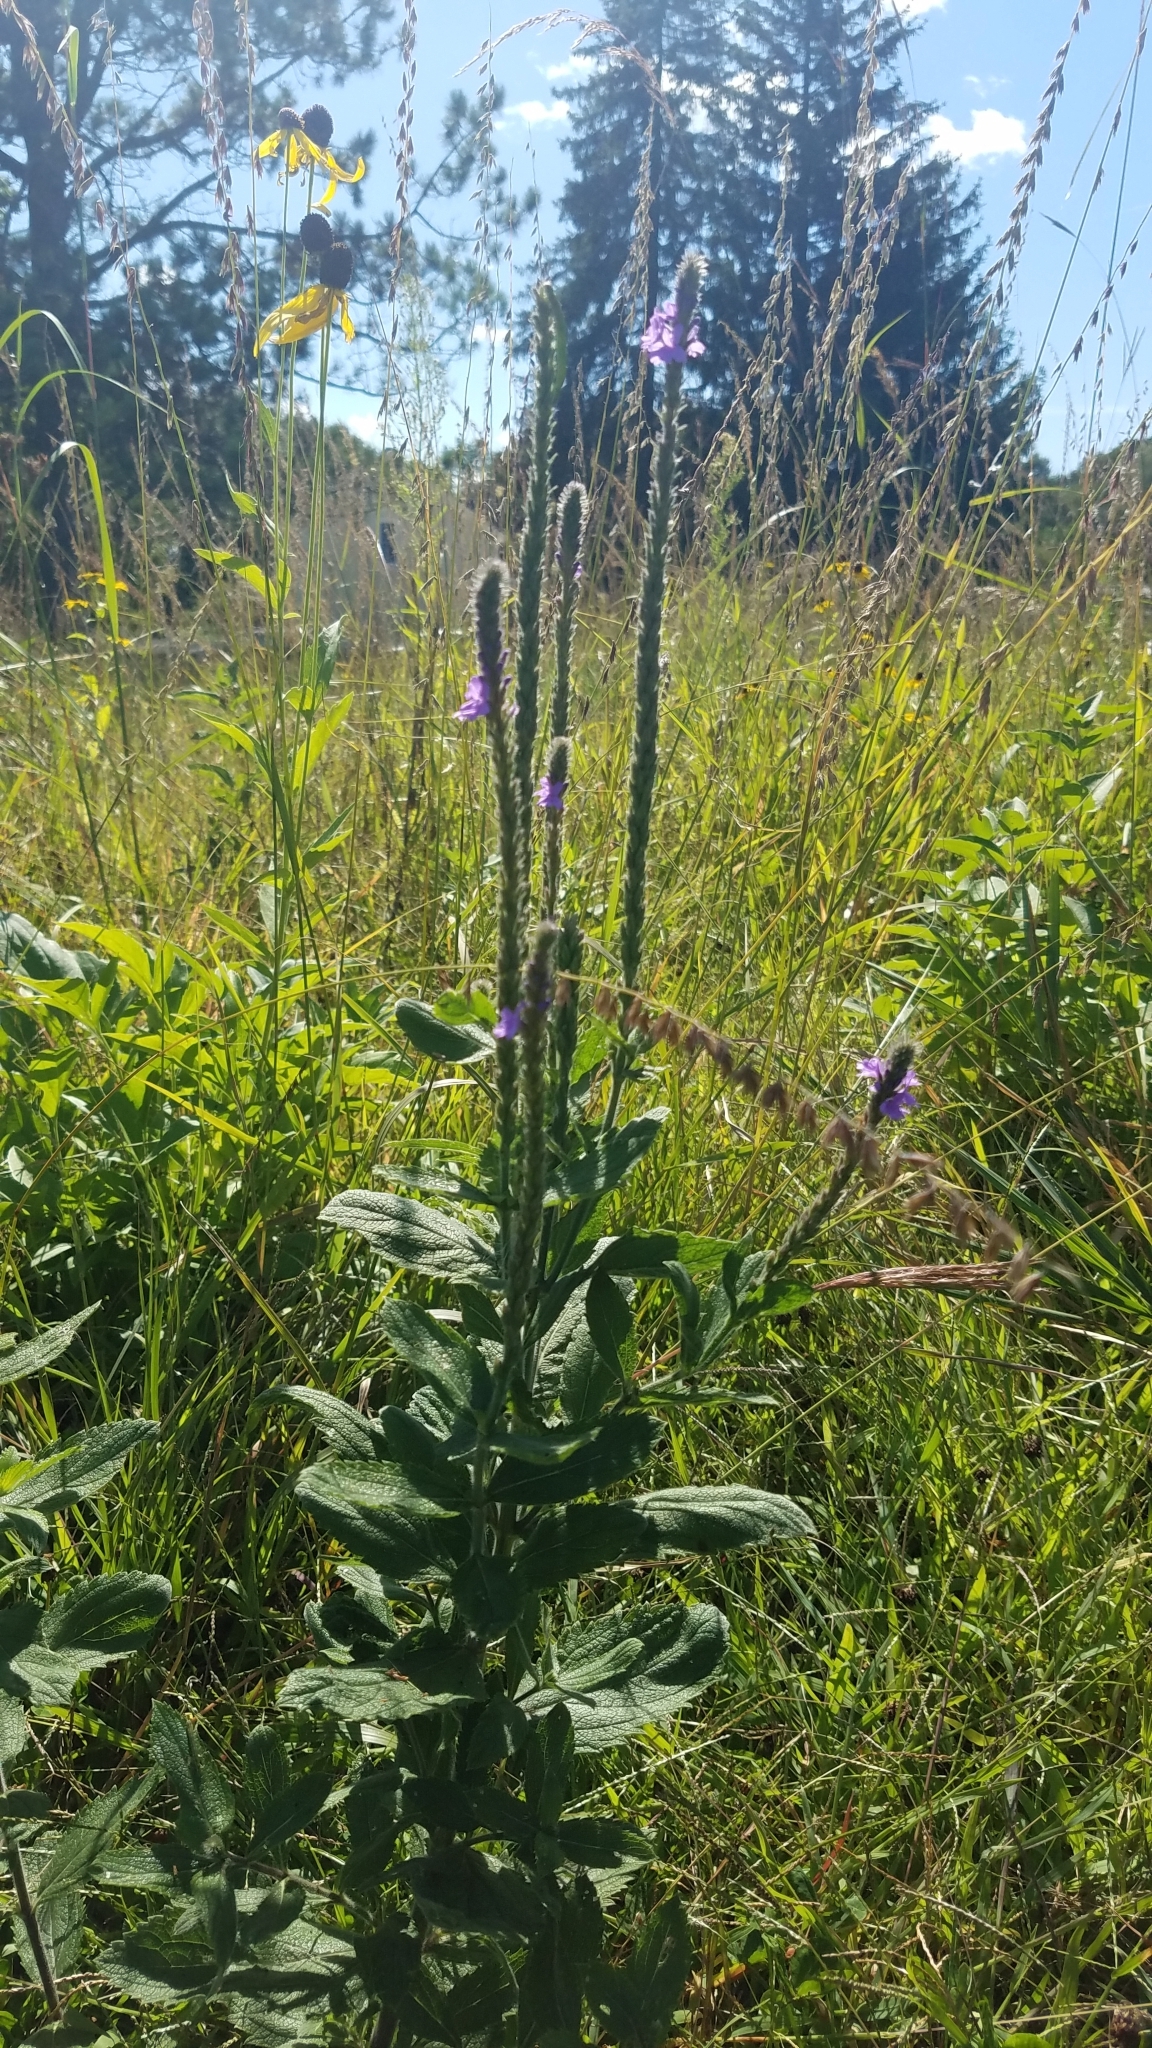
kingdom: Plantae
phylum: Tracheophyta
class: Magnoliopsida
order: Lamiales
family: Verbenaceae
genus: Verbena
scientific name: Verbena stricta
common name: Hoary vervain
